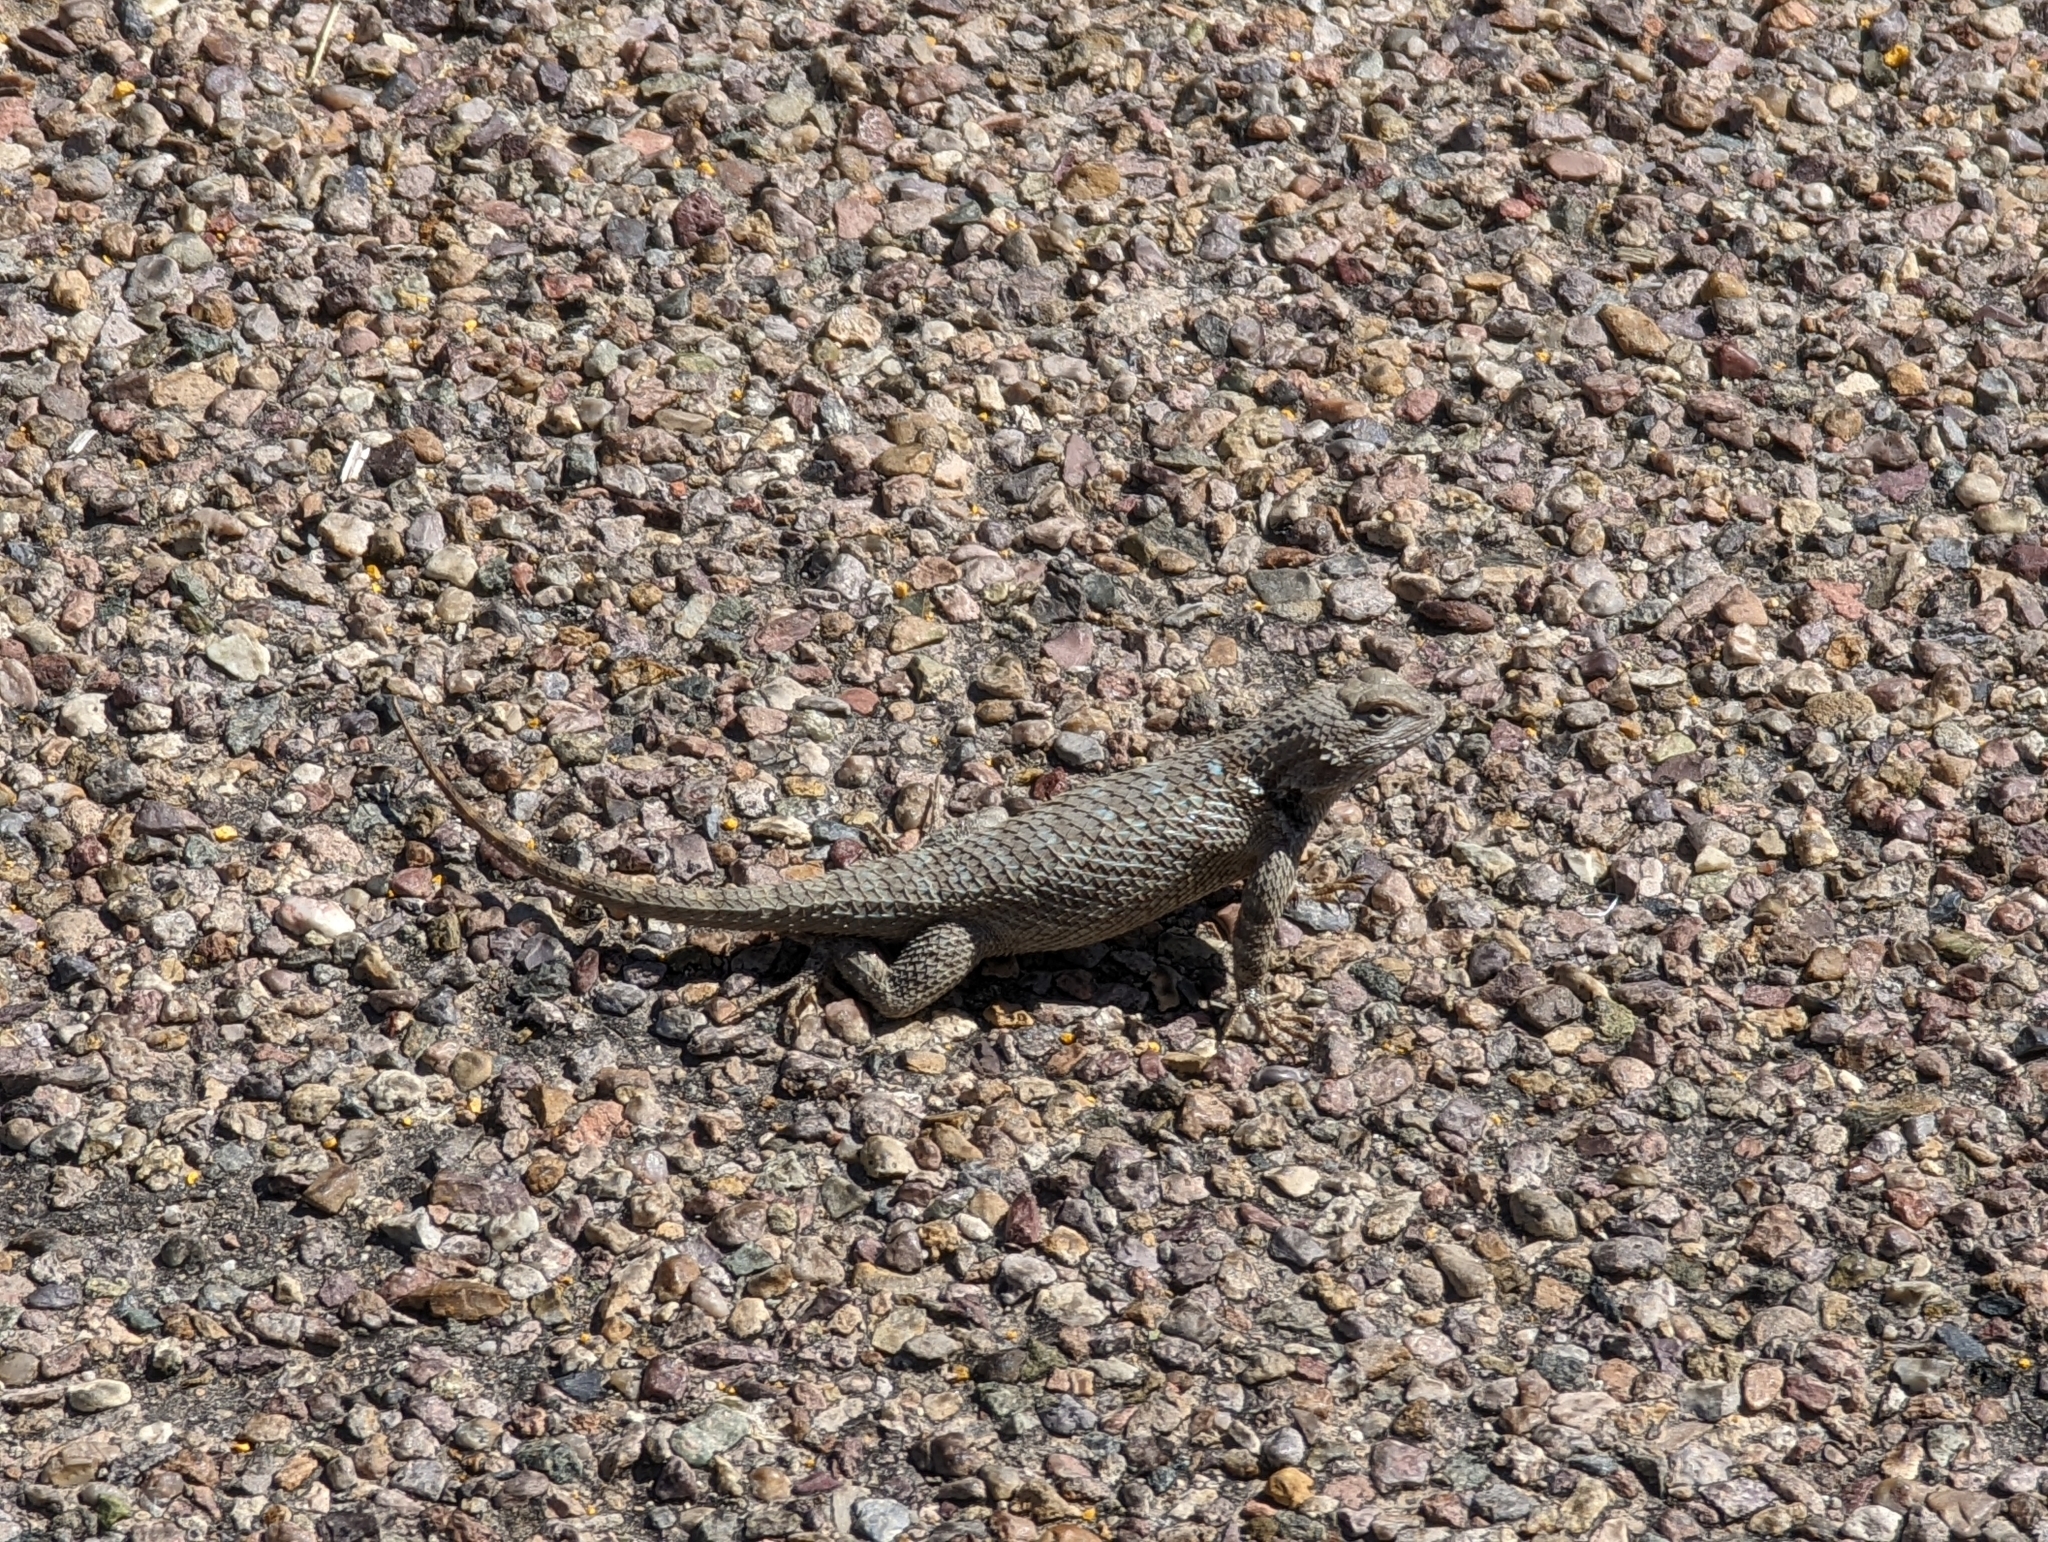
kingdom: Animalia
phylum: Chordata
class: Squamata
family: Phrynosomatidae
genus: Sceloporus
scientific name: Sceloporus clarkii
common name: Clark's spiny lizard
